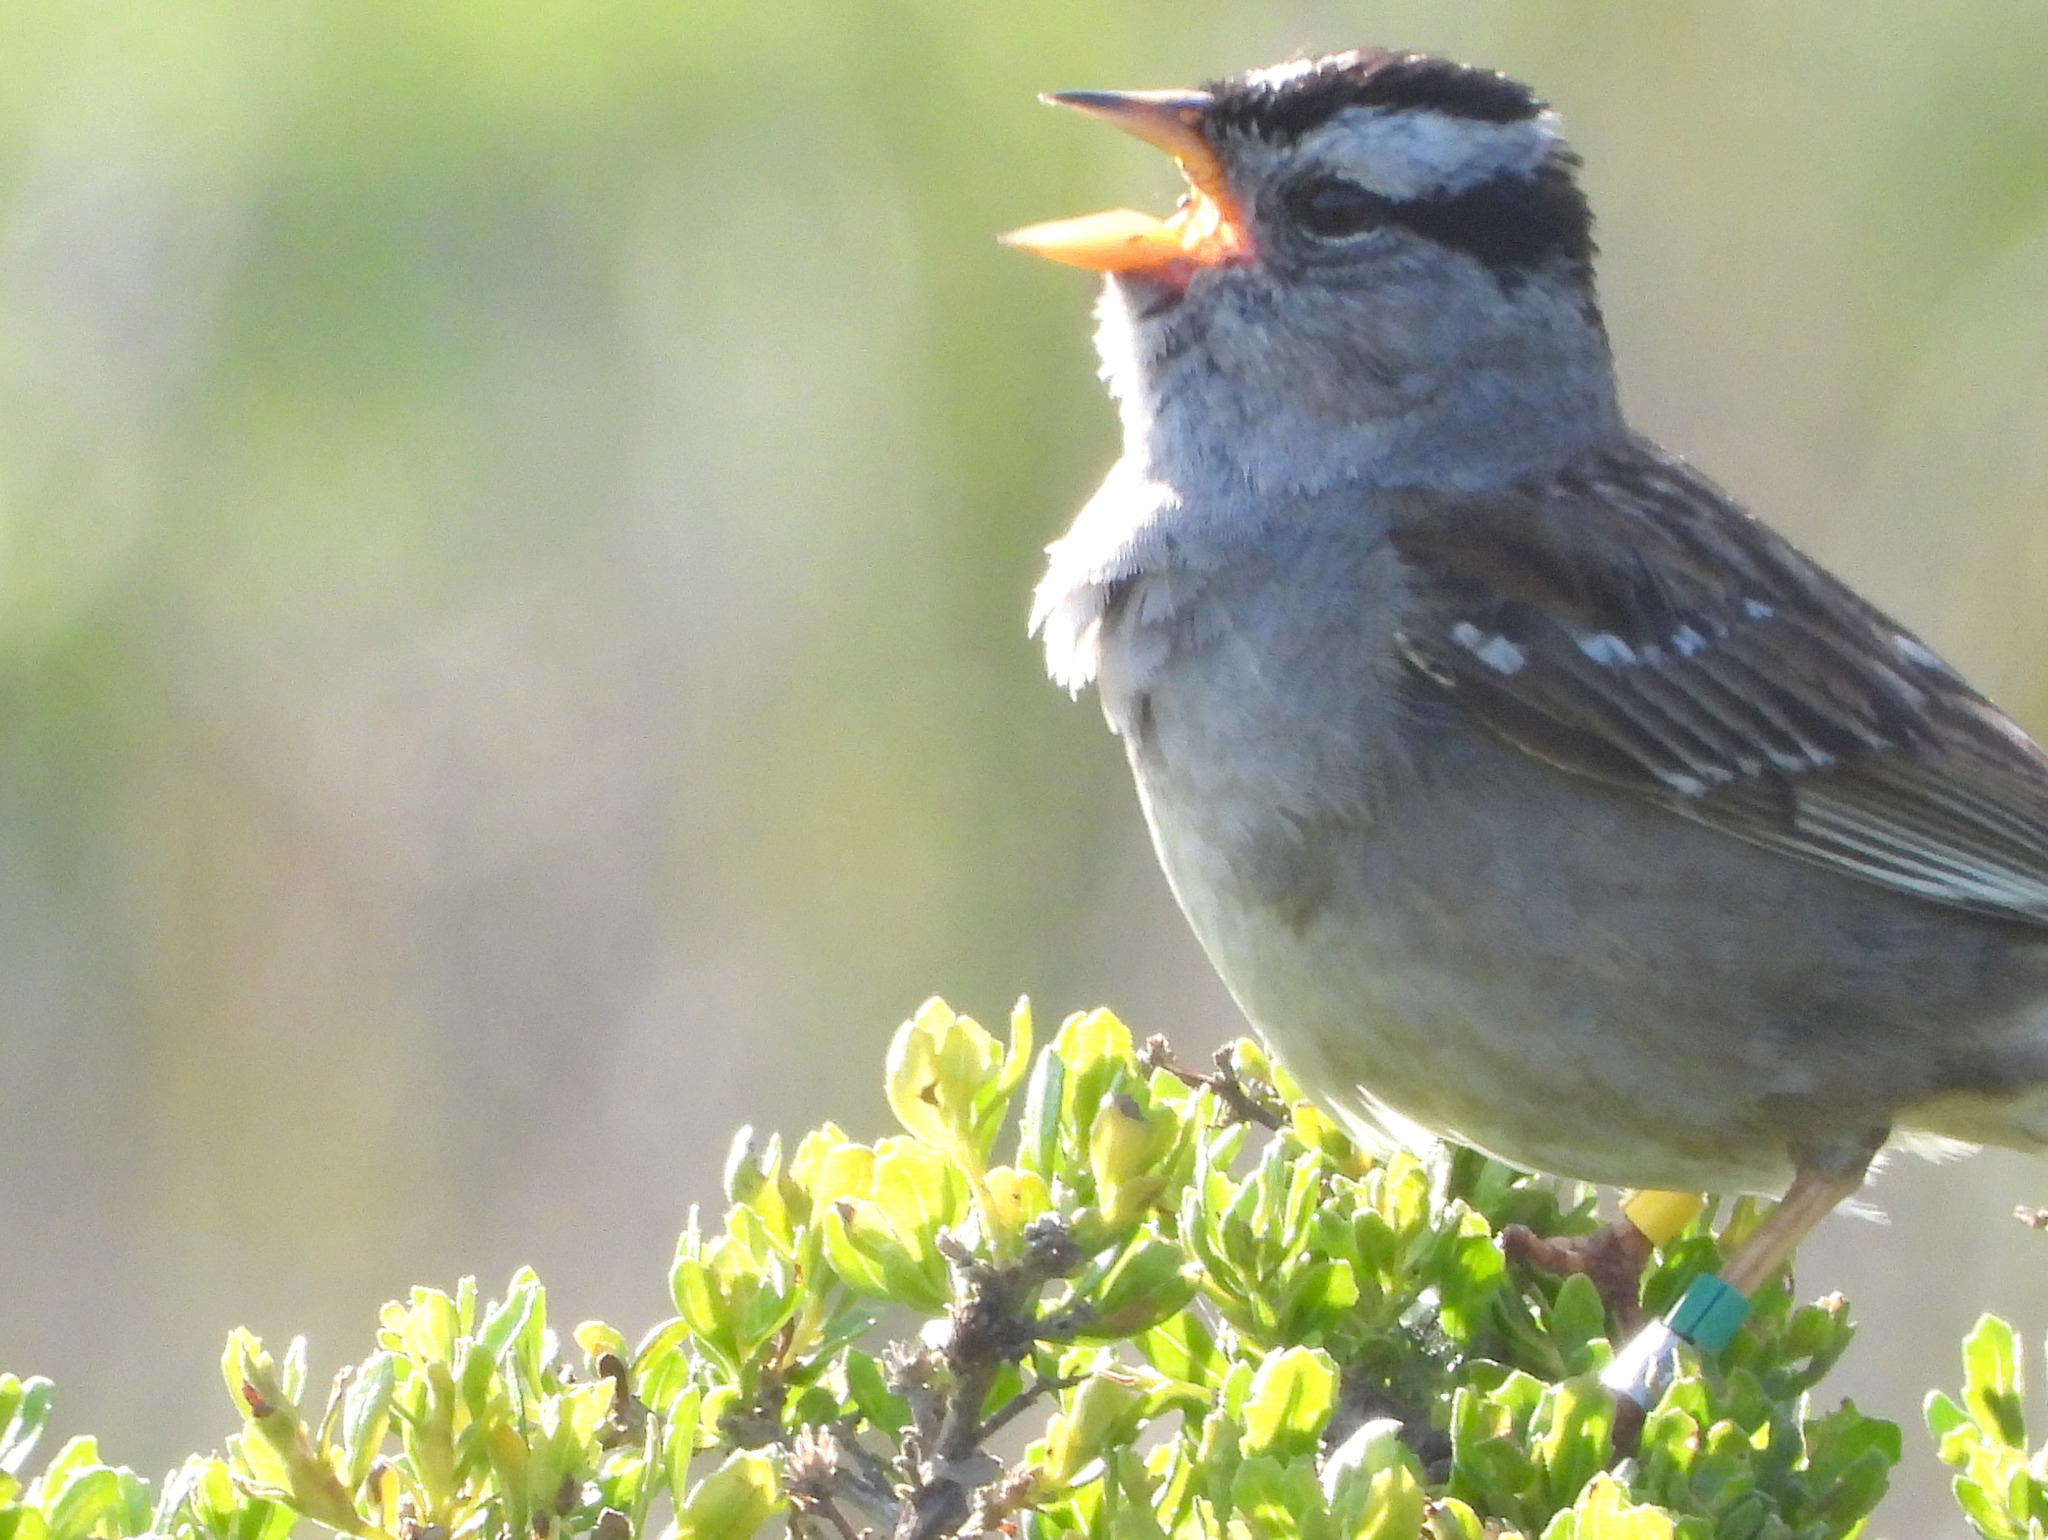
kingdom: Animalia
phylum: Chordata
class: Aves
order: Passeriformes
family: Passerellidae
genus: Zonotrichia
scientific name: Zonotrichia leucophrys
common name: White-crowned sparrow
